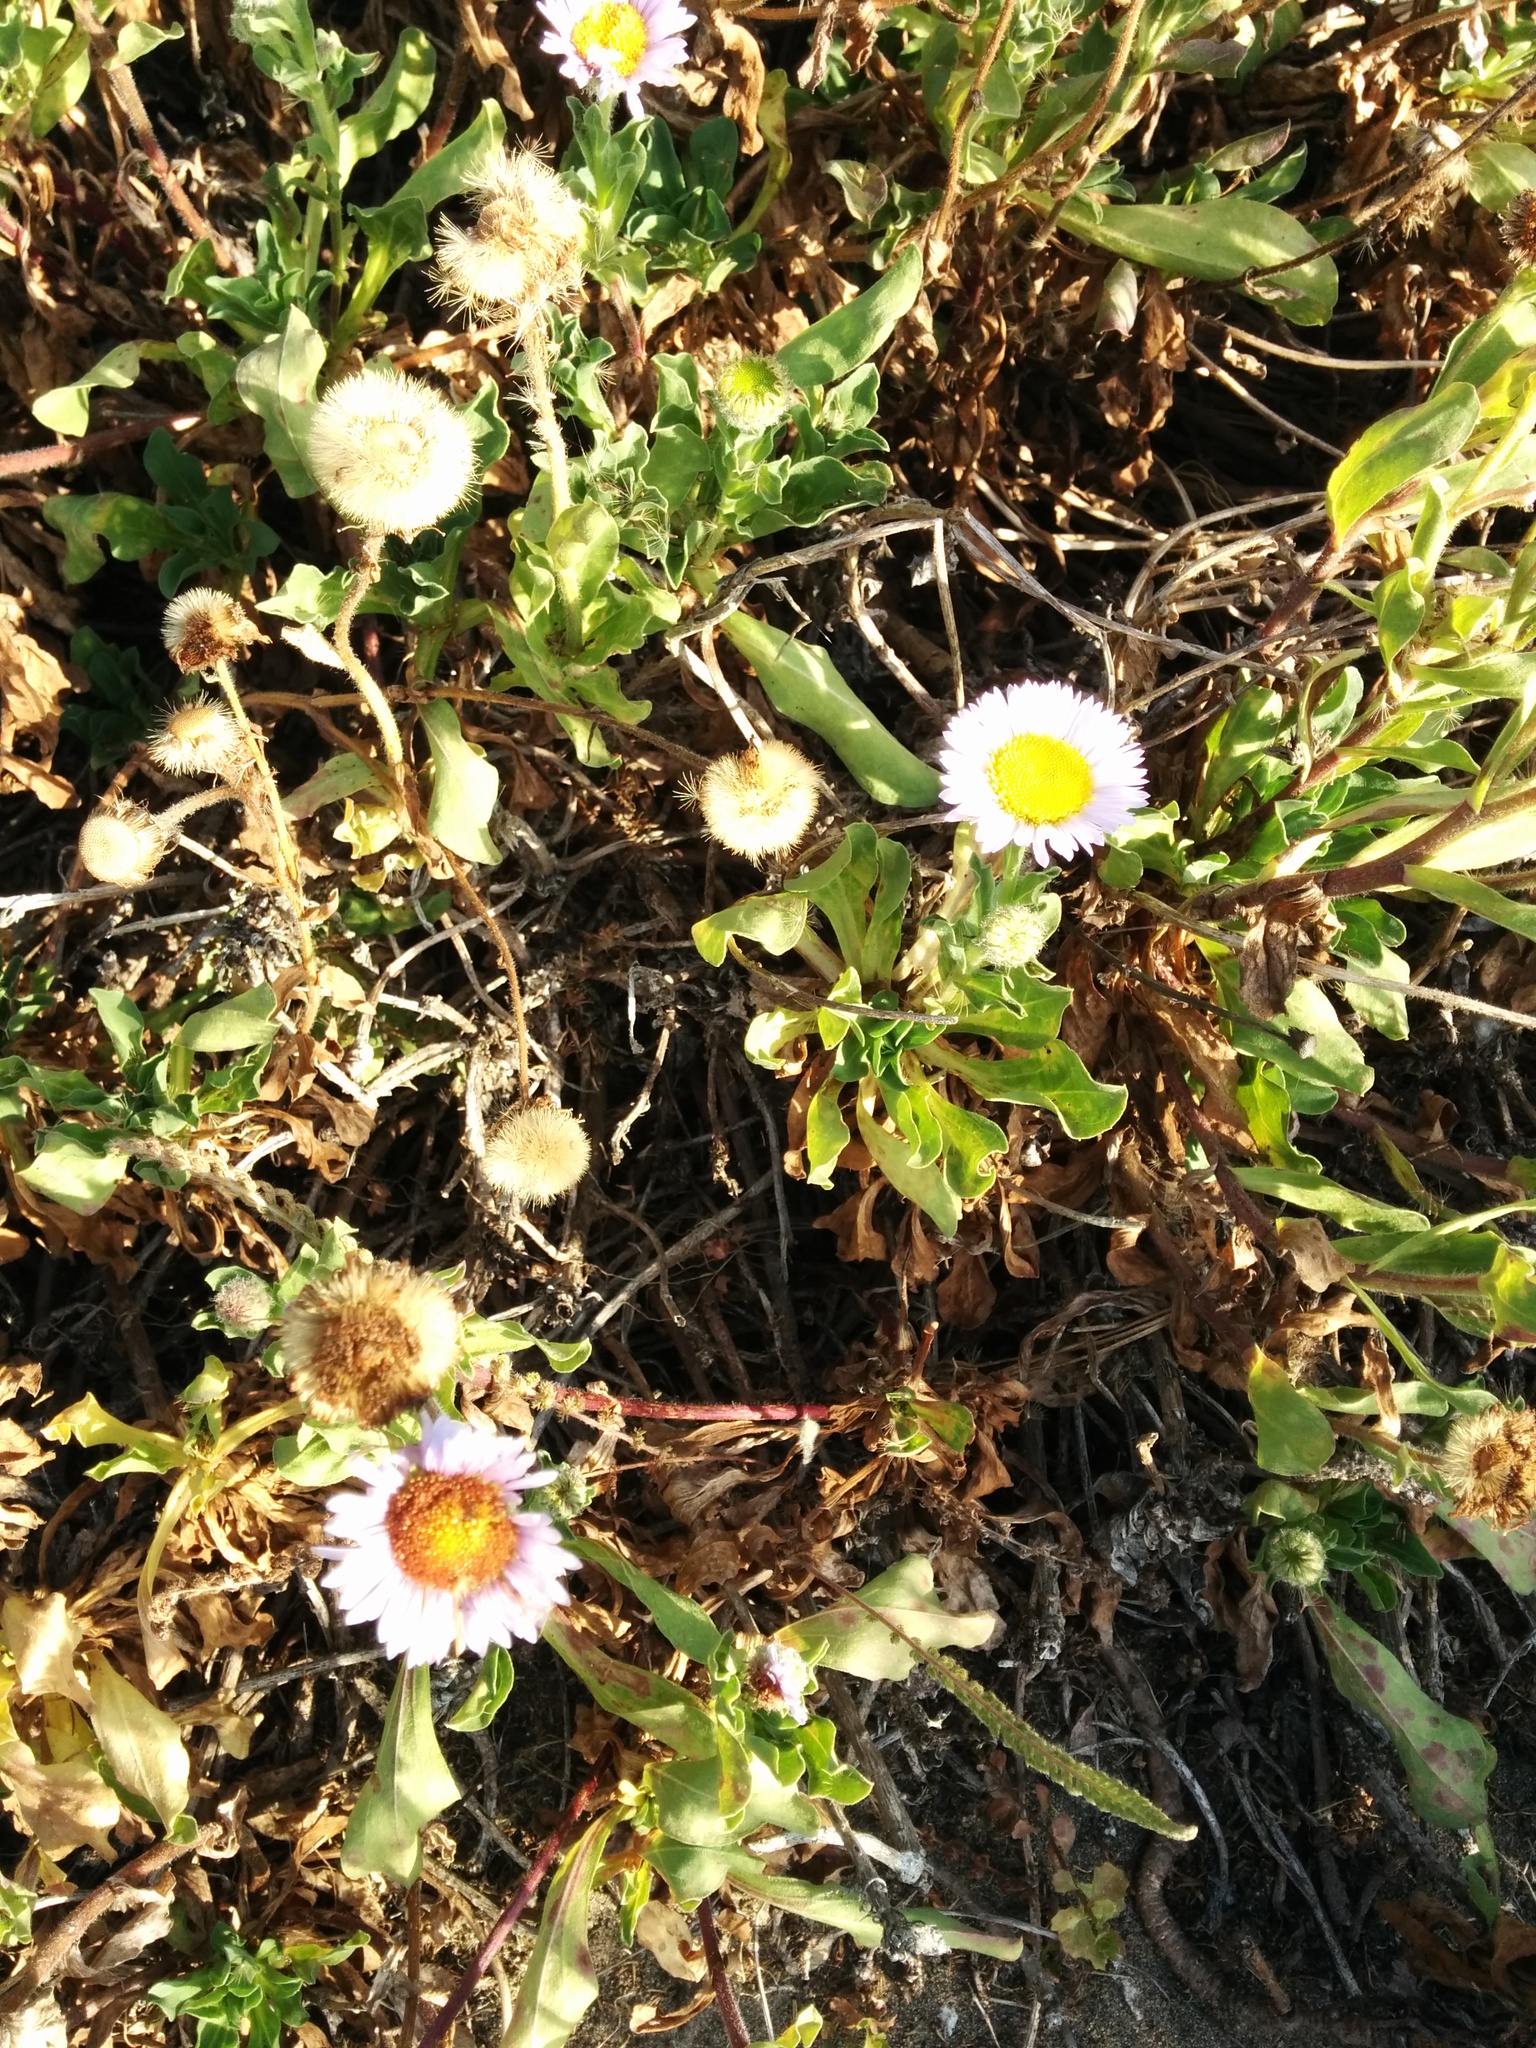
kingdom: Plantae
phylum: Tracheophyta
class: Magnoliopsida
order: Asterales
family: Asteraceae
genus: Erigeron
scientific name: Erigeron glaucus
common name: Seaside daisy
